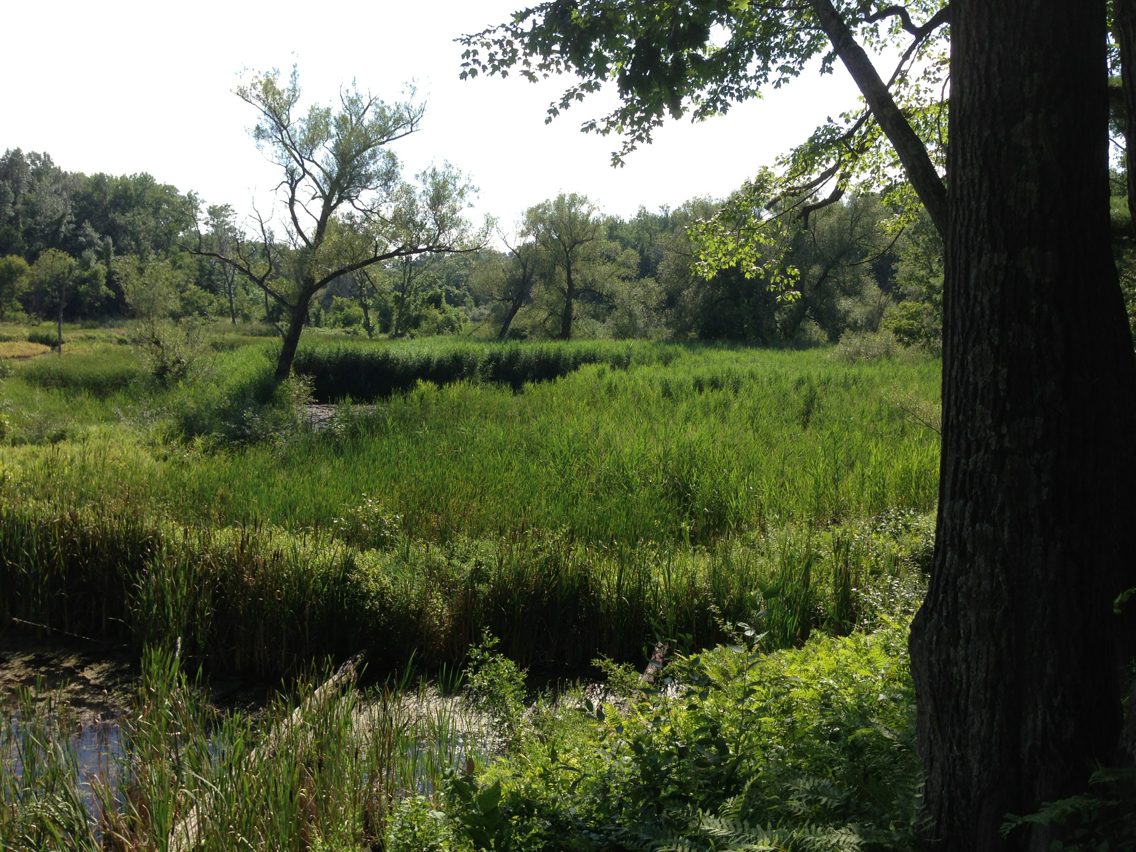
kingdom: Plantae
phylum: Tracheophyta
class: Liliopsida
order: Poales
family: Poaceae
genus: Phragmites
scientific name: Phragmites australis
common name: Common reed
